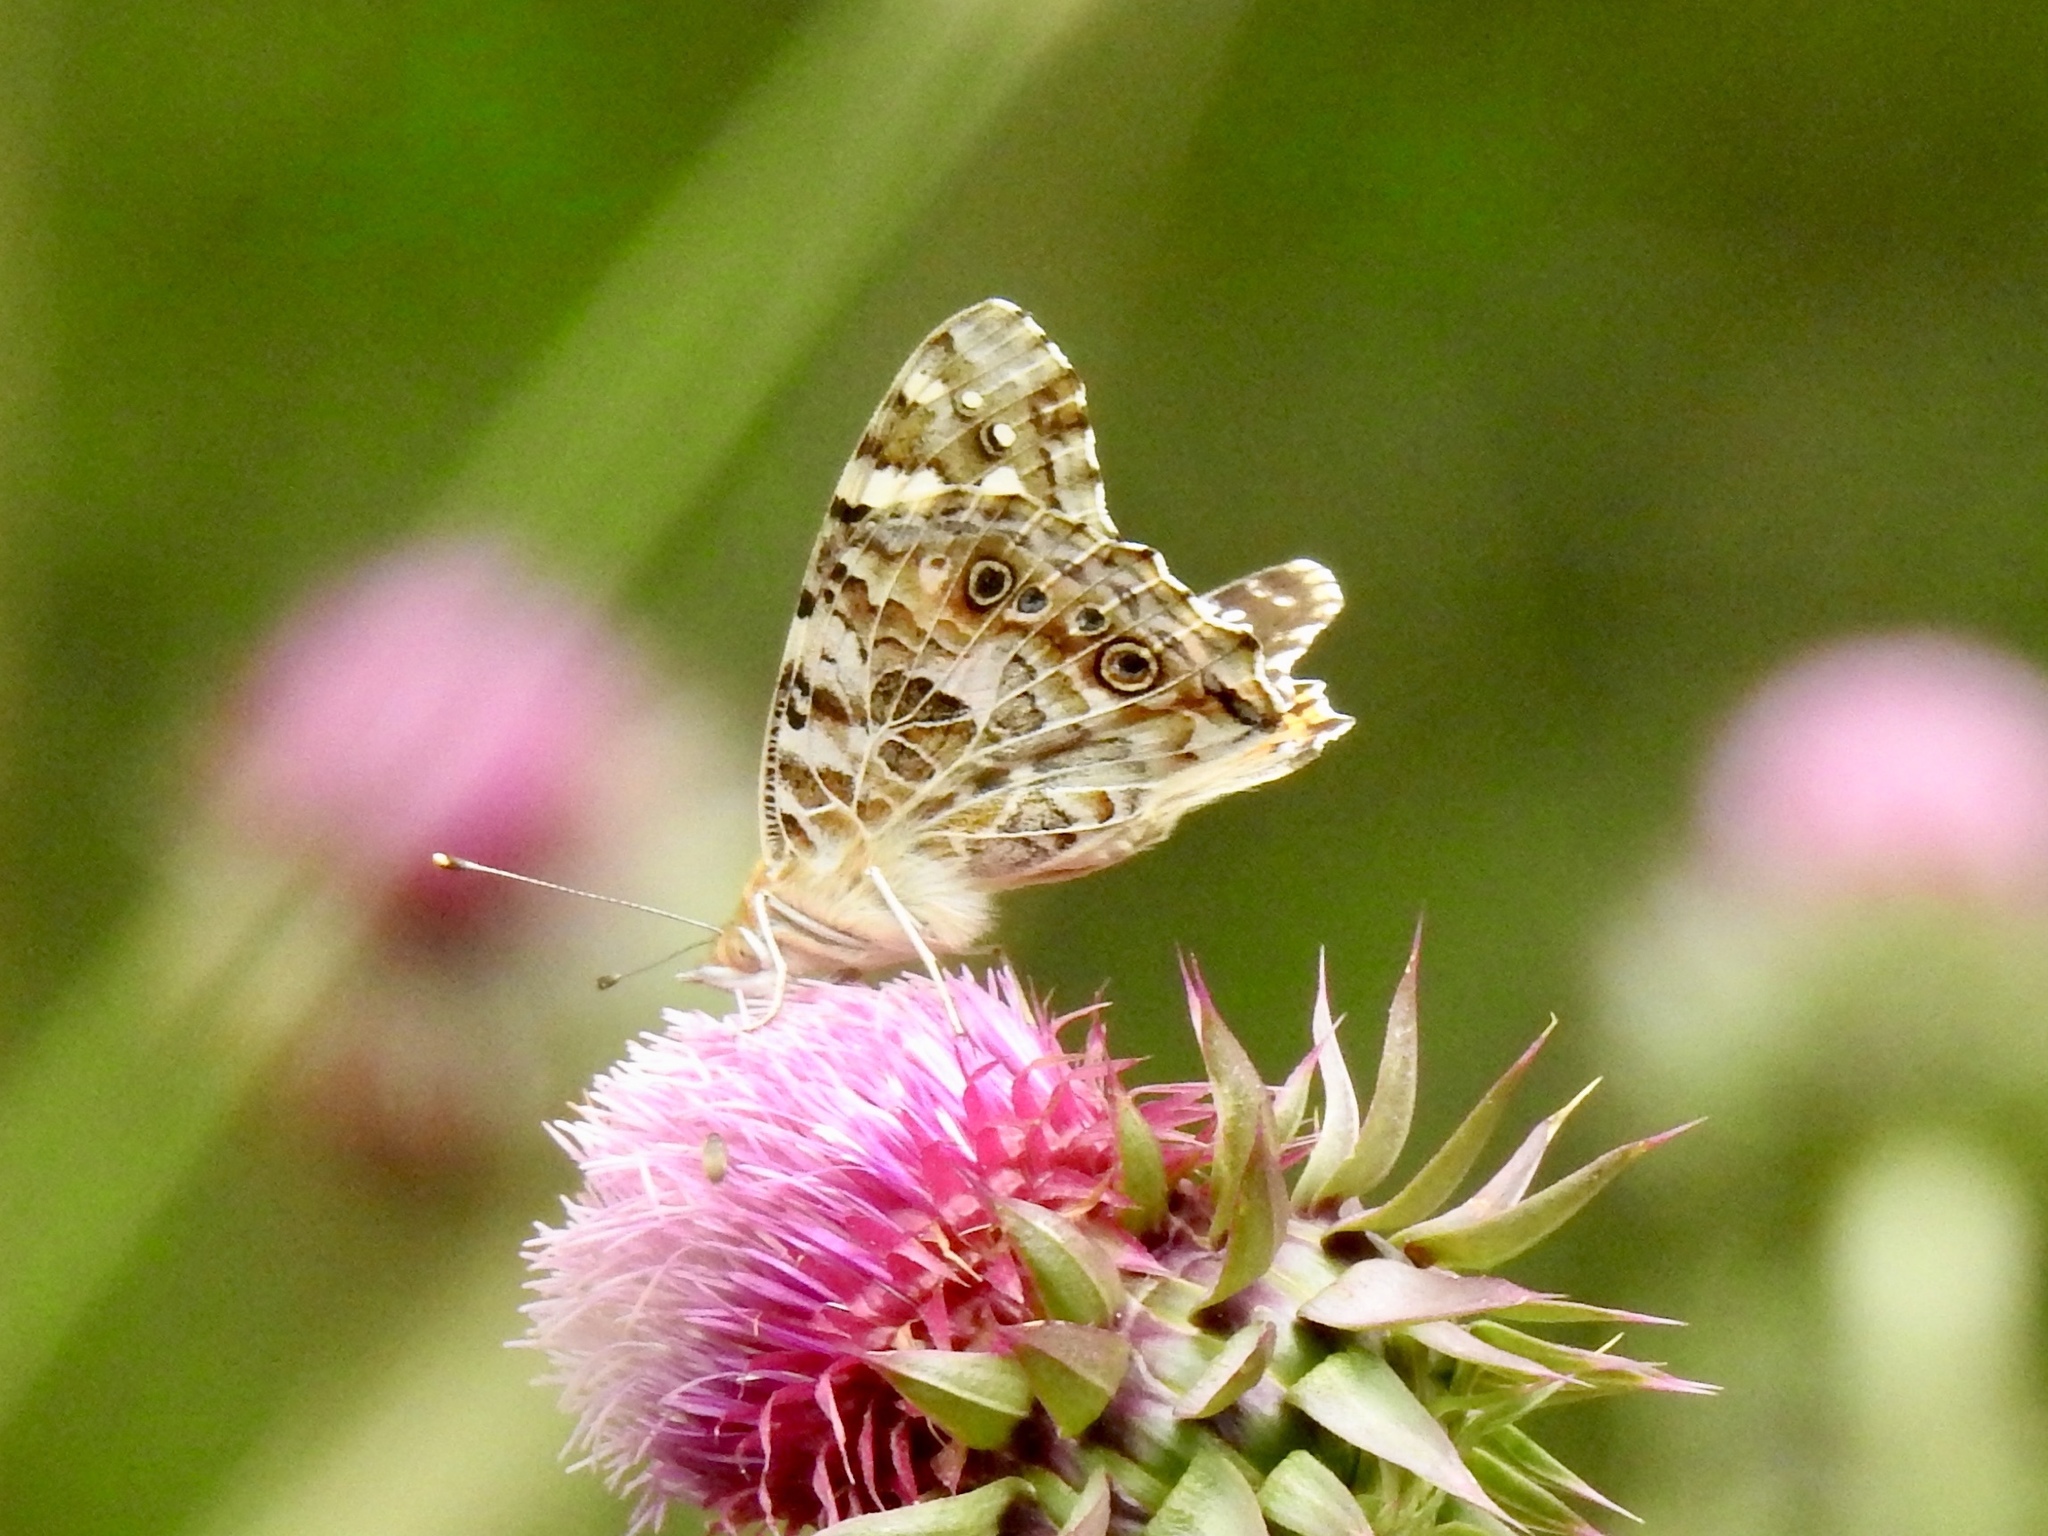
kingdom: Animalia
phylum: Arthropoda
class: Insecta
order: Lepidoptera
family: Nymphalidae
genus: Vanessa
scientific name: Vanessa cardui
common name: Painted lady
